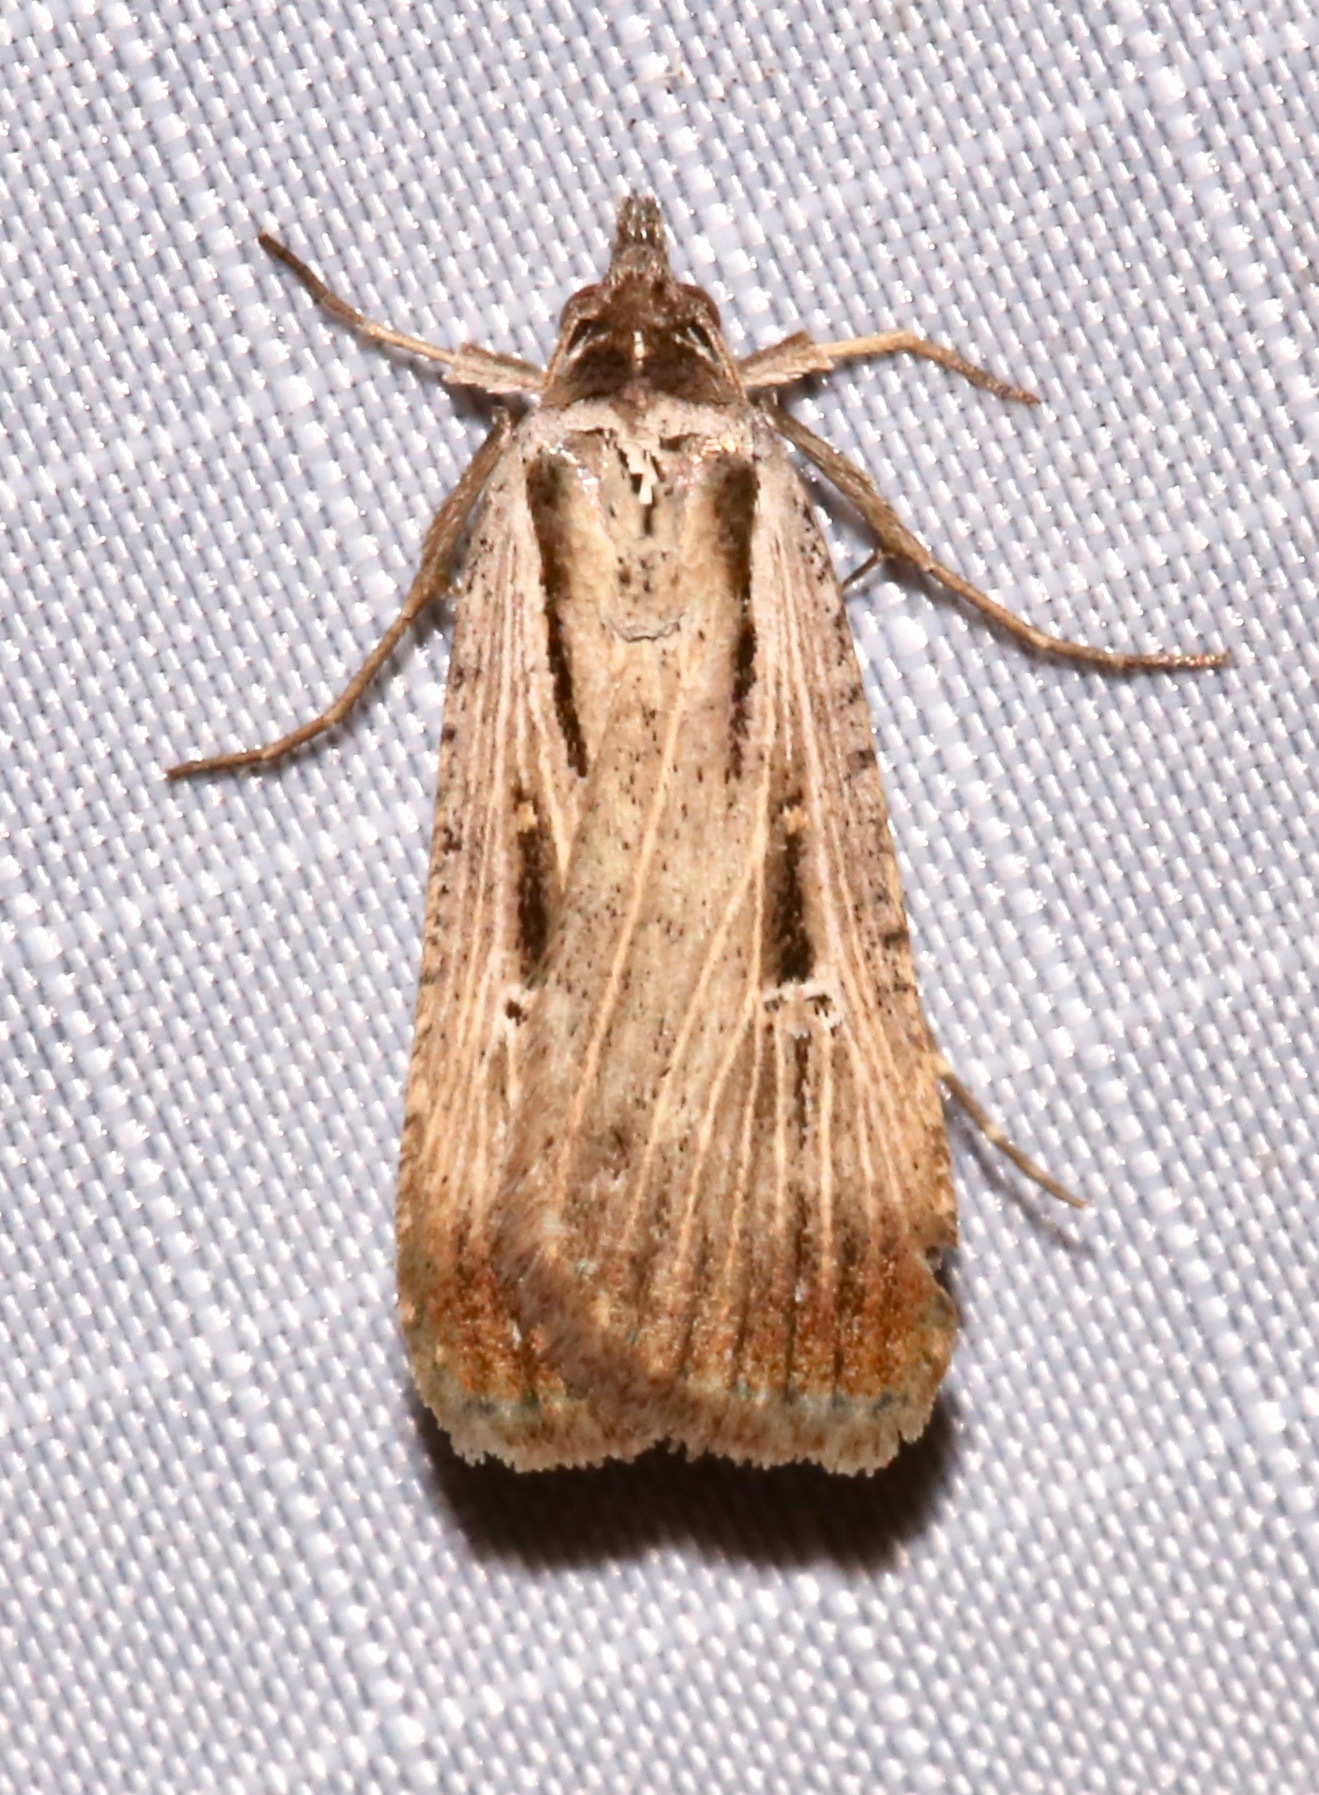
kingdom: Animalia
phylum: Arthropoda
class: Insecta
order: Lepidoptera
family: Noctuidae
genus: Tathorhynchus
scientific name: Tathorhynchus exsiccata
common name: Levant blackneck moth
